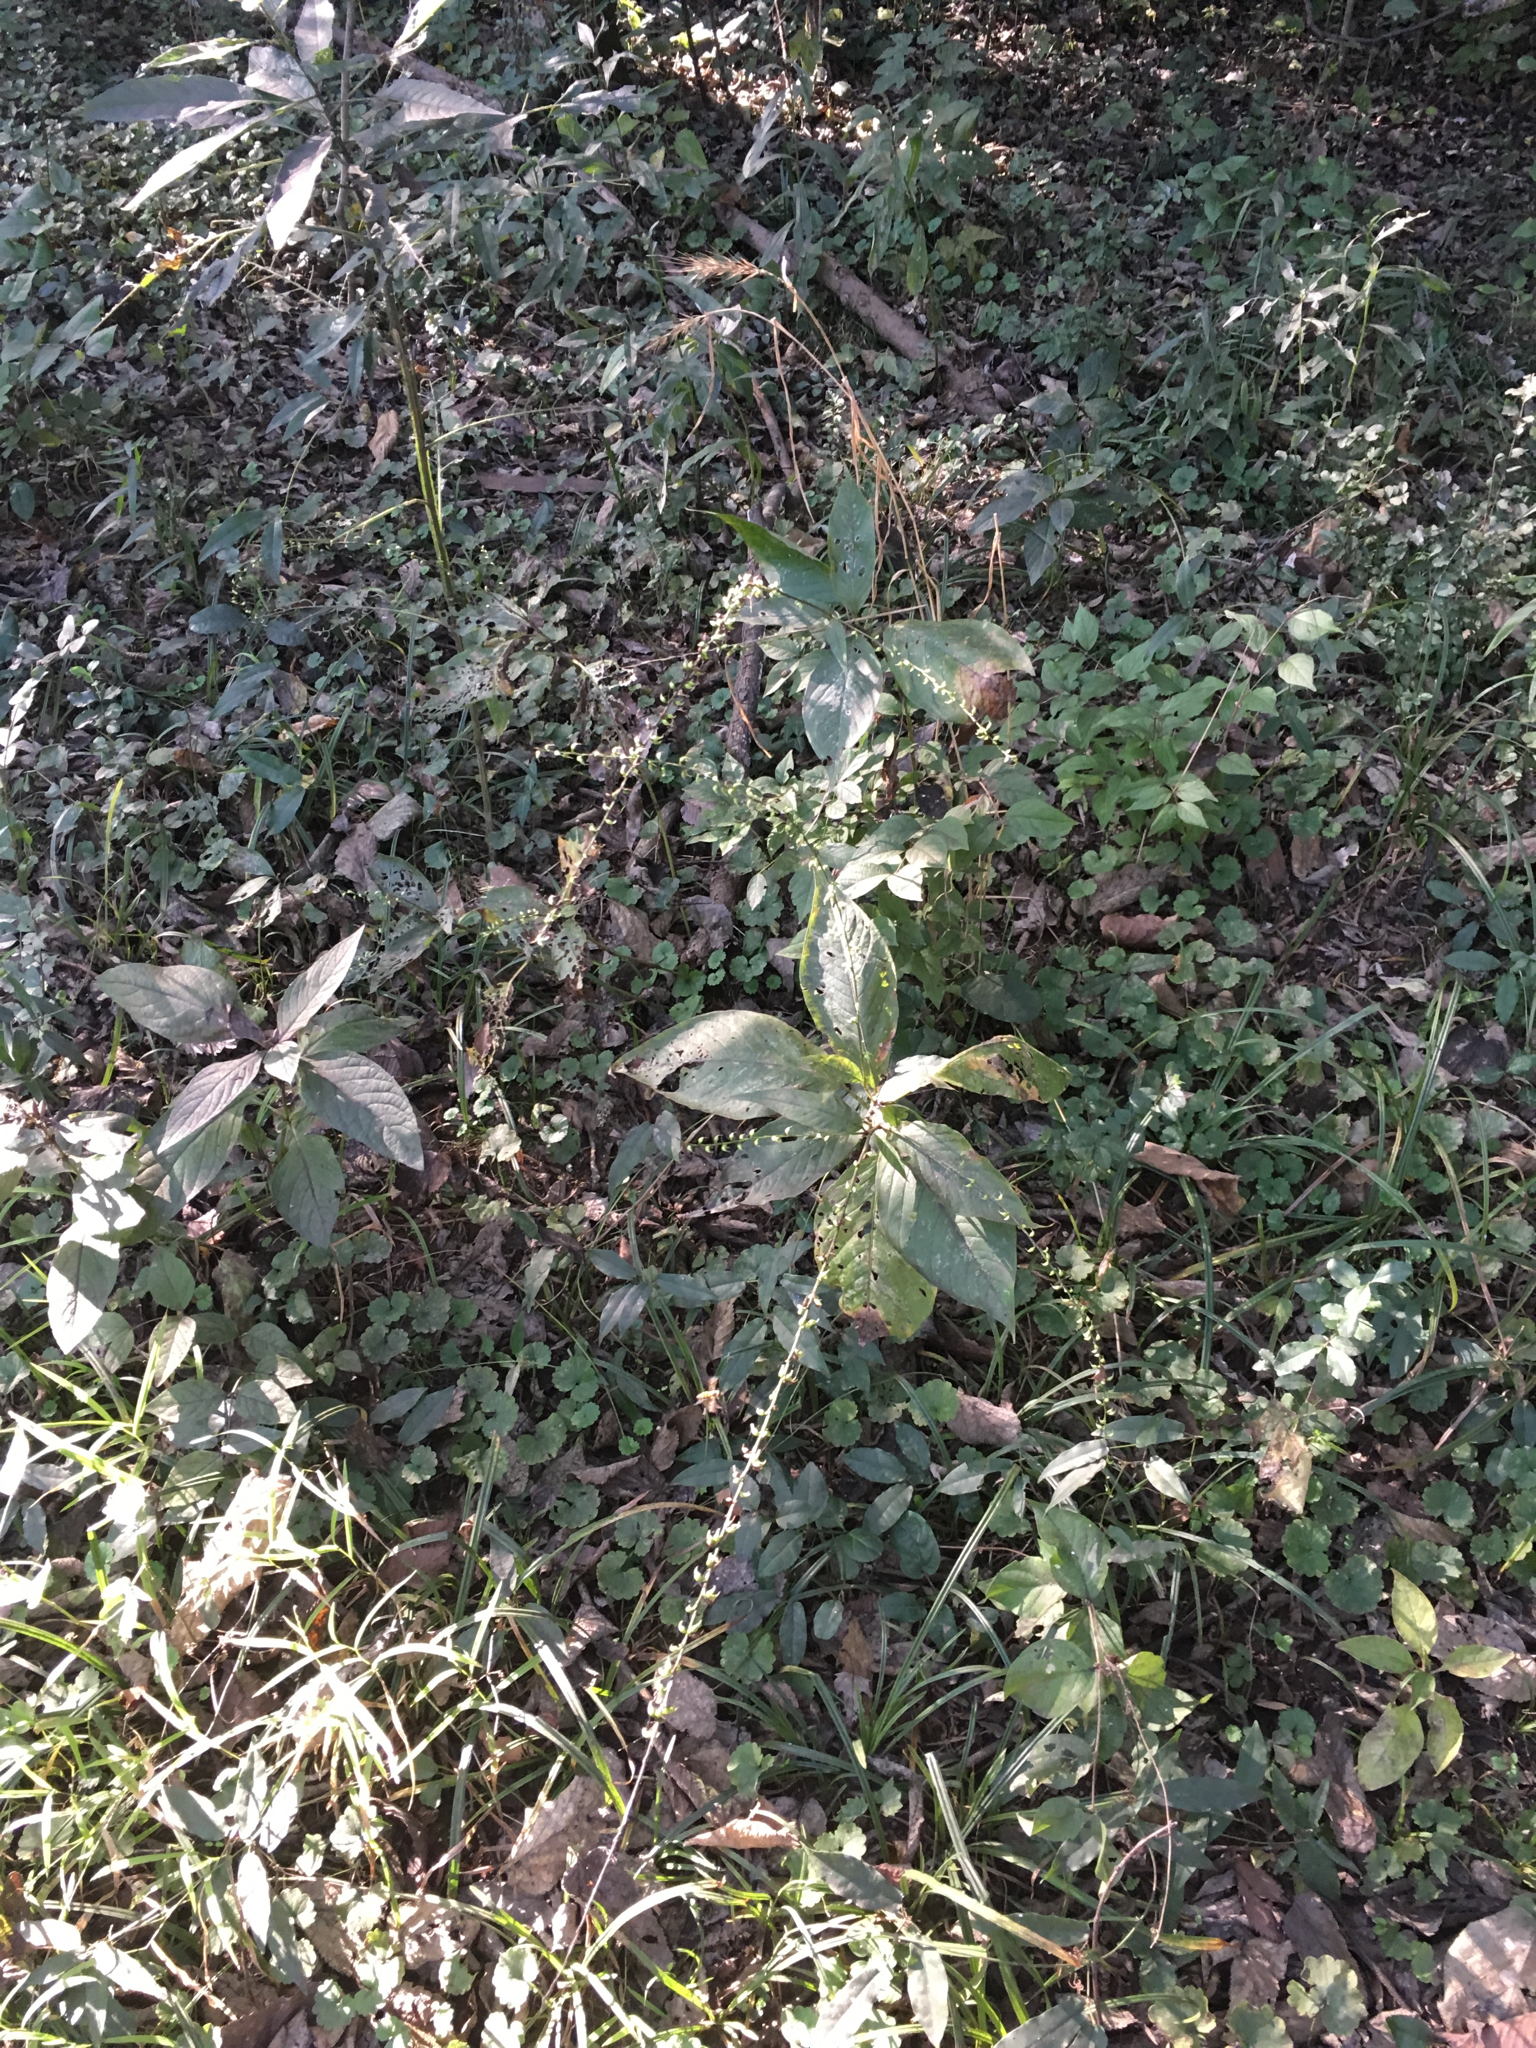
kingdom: Plantae
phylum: Tracheophyta
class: Magnoliopsida
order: Caryophyllales
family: Polygonaceae
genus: Persicaria
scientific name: Persicaria virginiana
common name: Jumpseed
